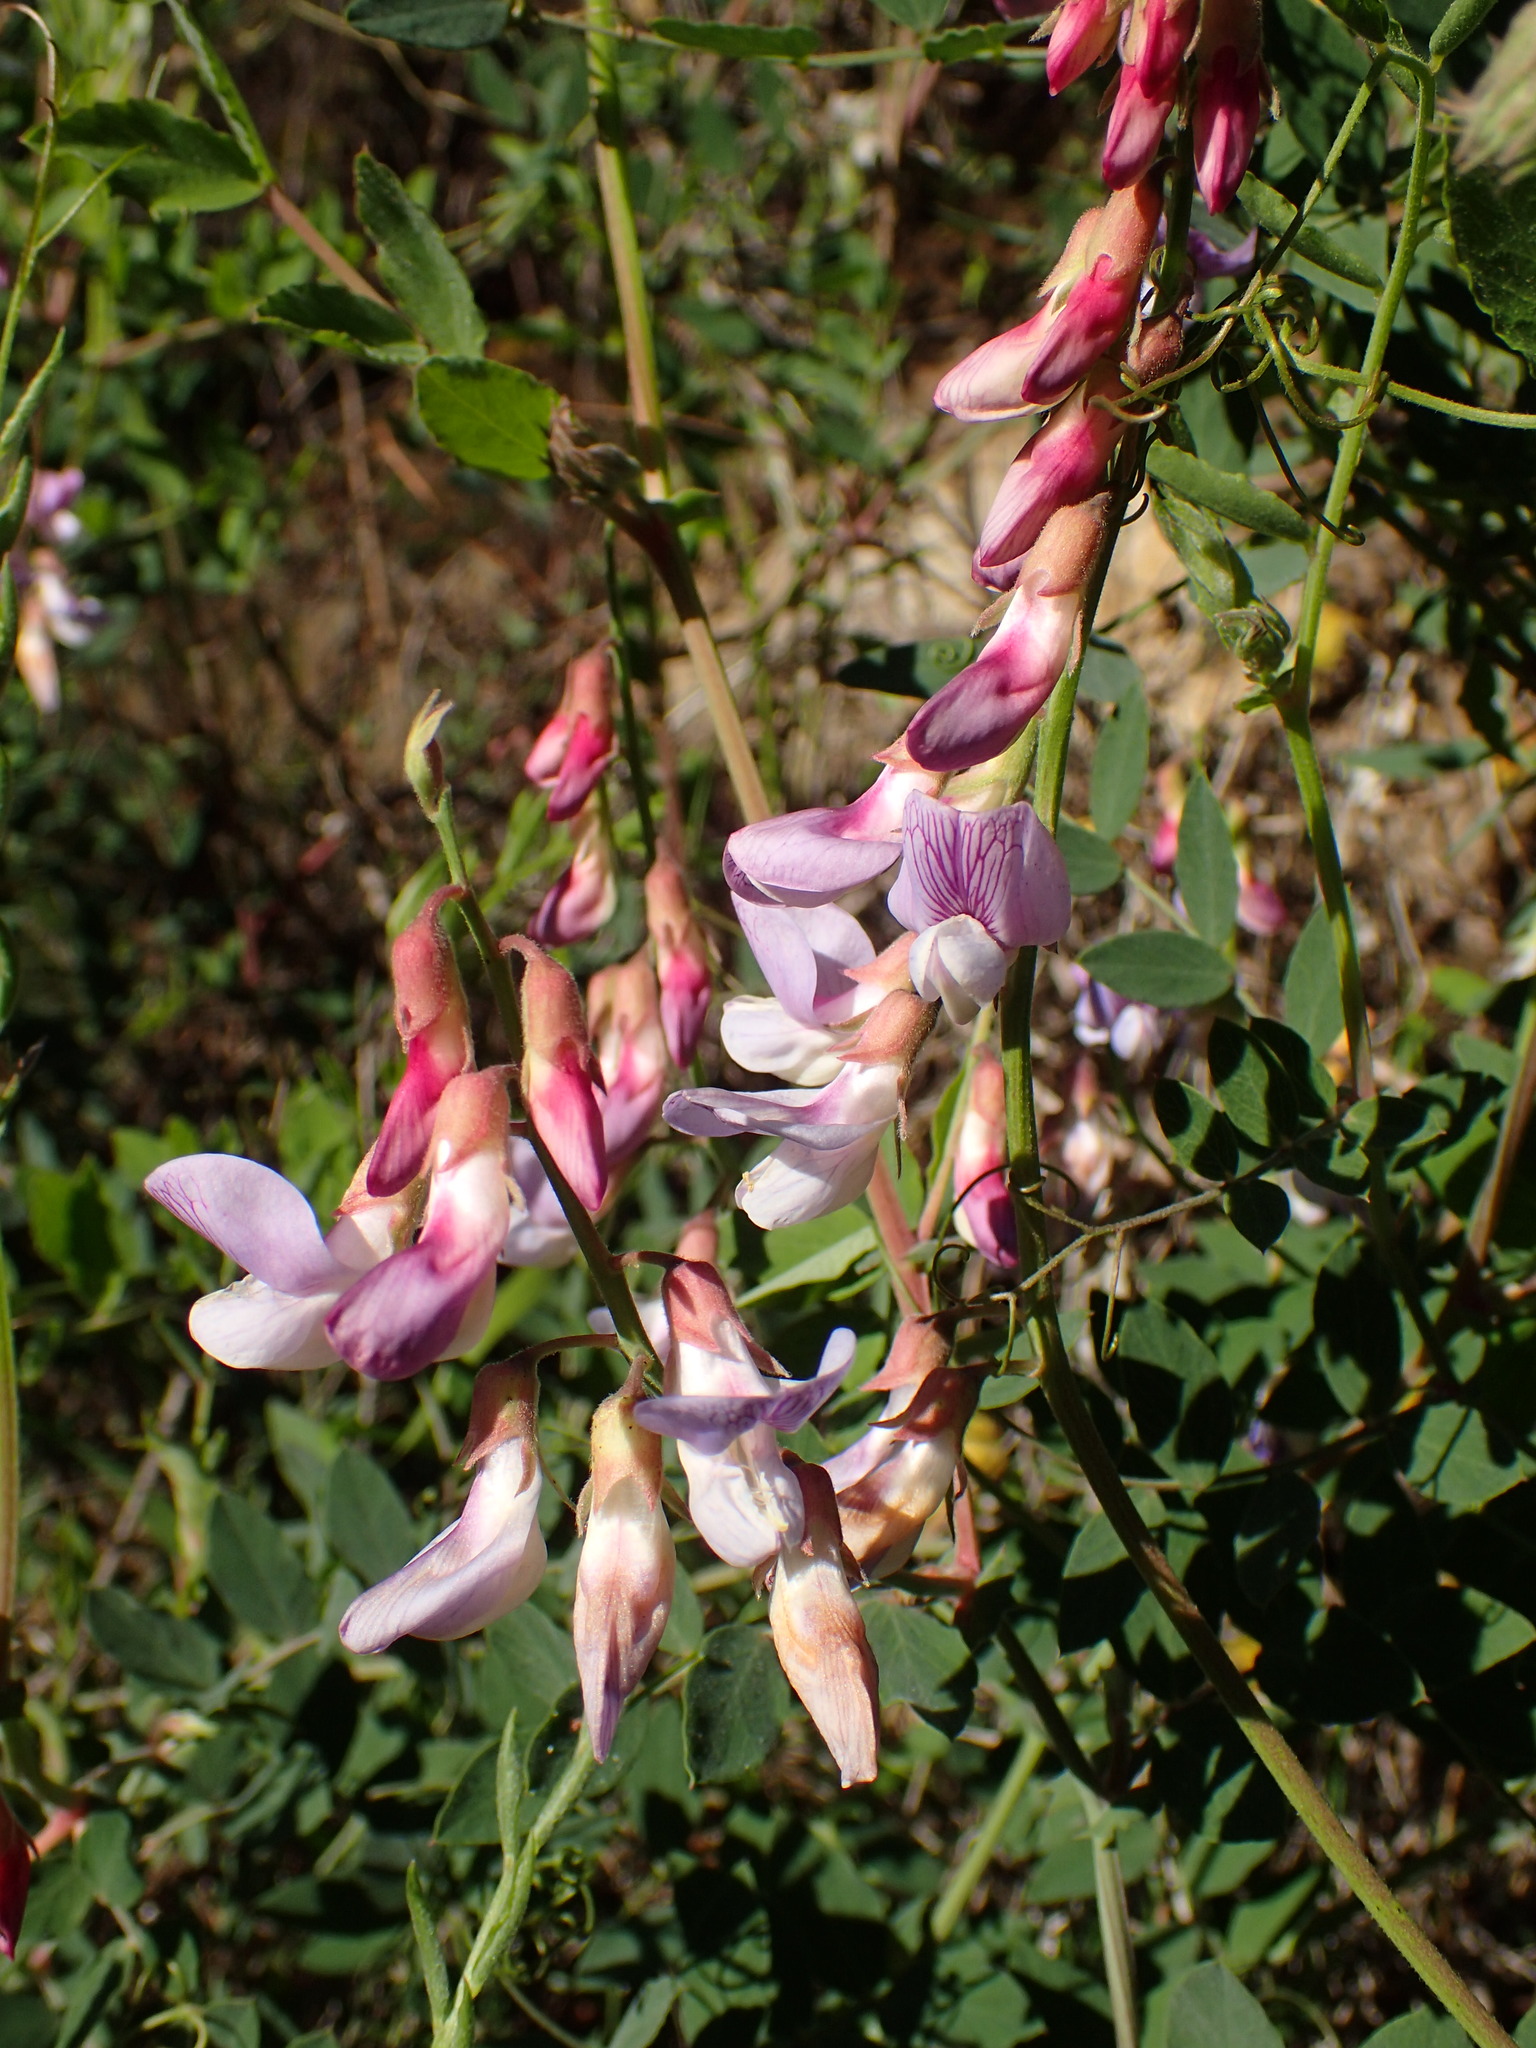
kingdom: Plantae
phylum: Tracheophyta
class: Magnoliopsida
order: Fabales
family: Fabaceae
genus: Lathyrus
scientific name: Lathyrus vestitus
